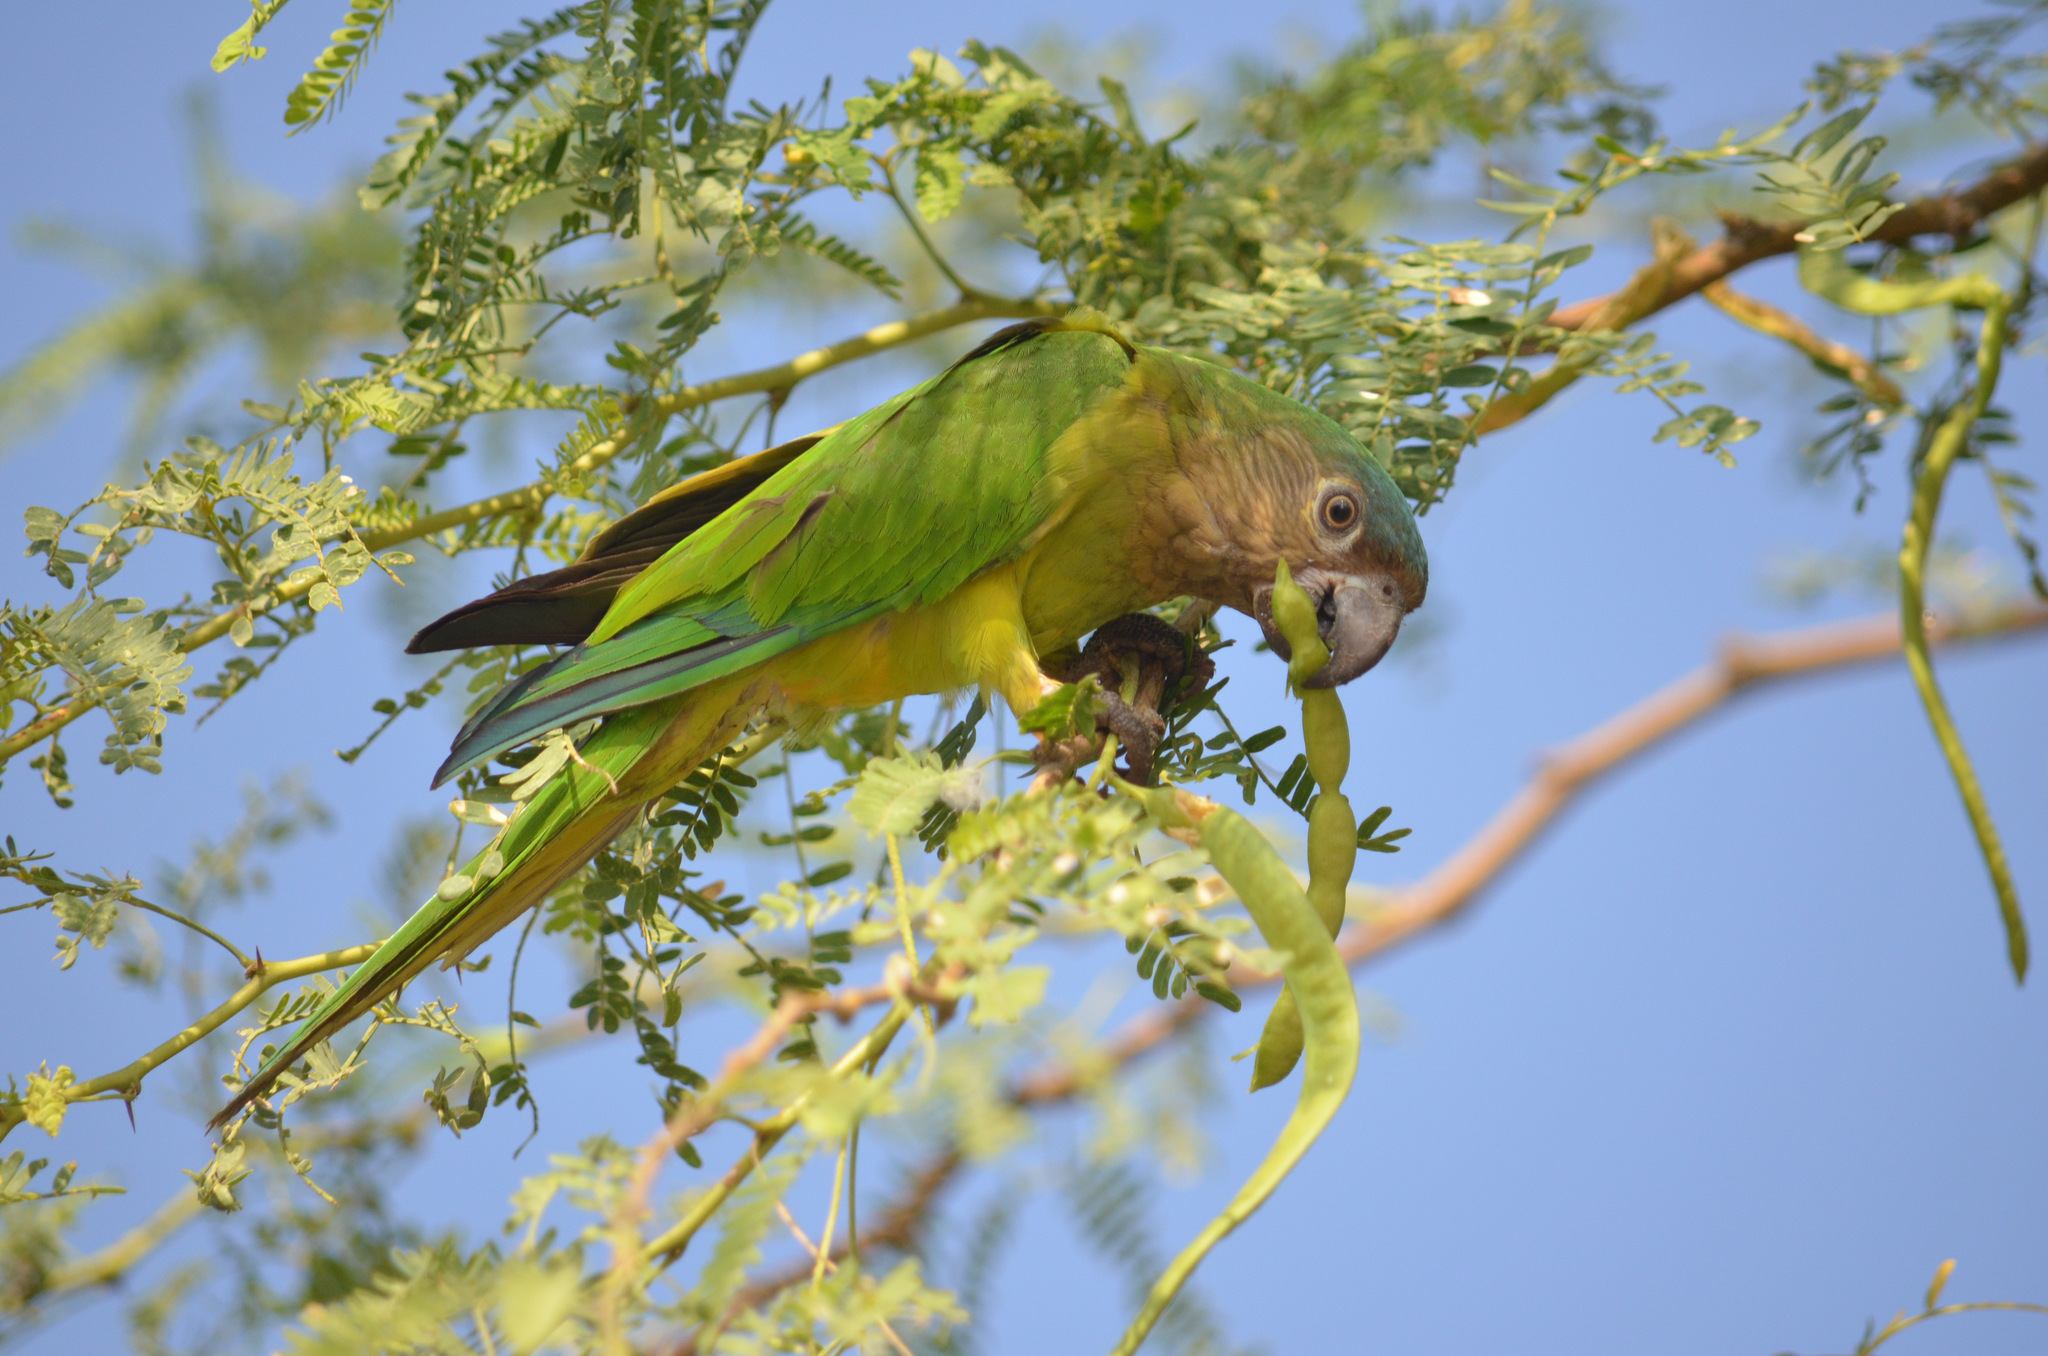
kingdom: Animalia
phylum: Chordata
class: Aves
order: Psittaciformes
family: Psittacidae
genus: Aratinga
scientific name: Aratinga pertinax
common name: Brown-throated parakeet
